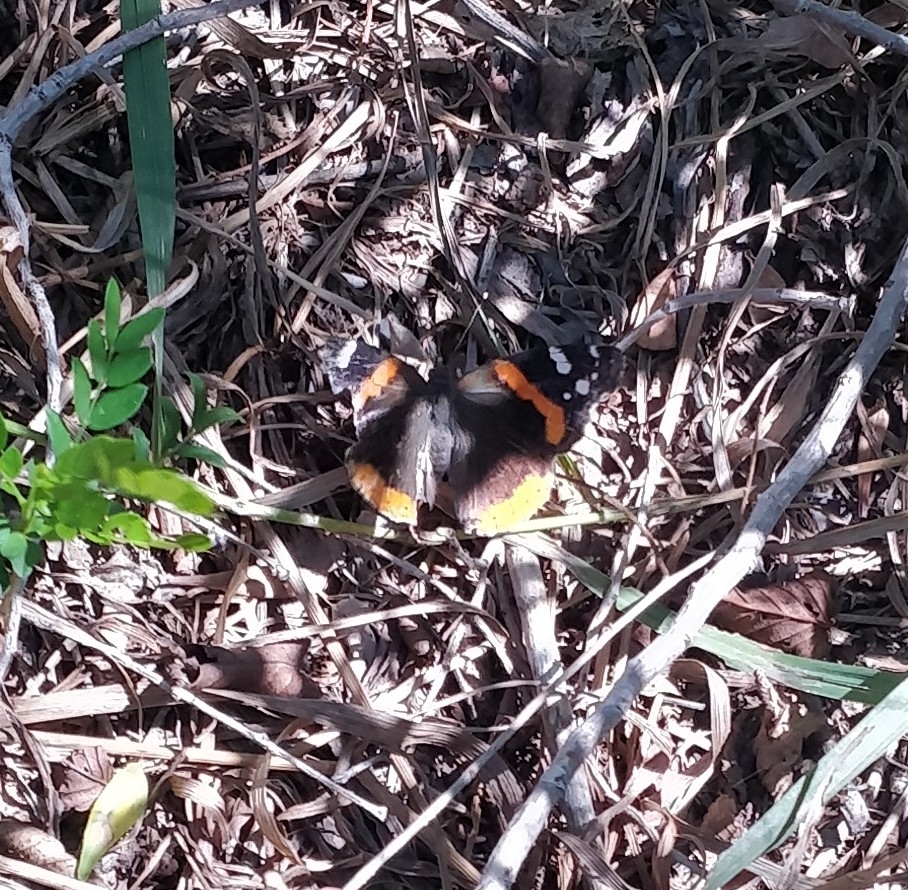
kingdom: Animalia
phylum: Arthropoda
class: Insecta
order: Lepidoptera
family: Nymphalidae
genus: Vanessa
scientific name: Vanessa atalanta
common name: Red admiral
